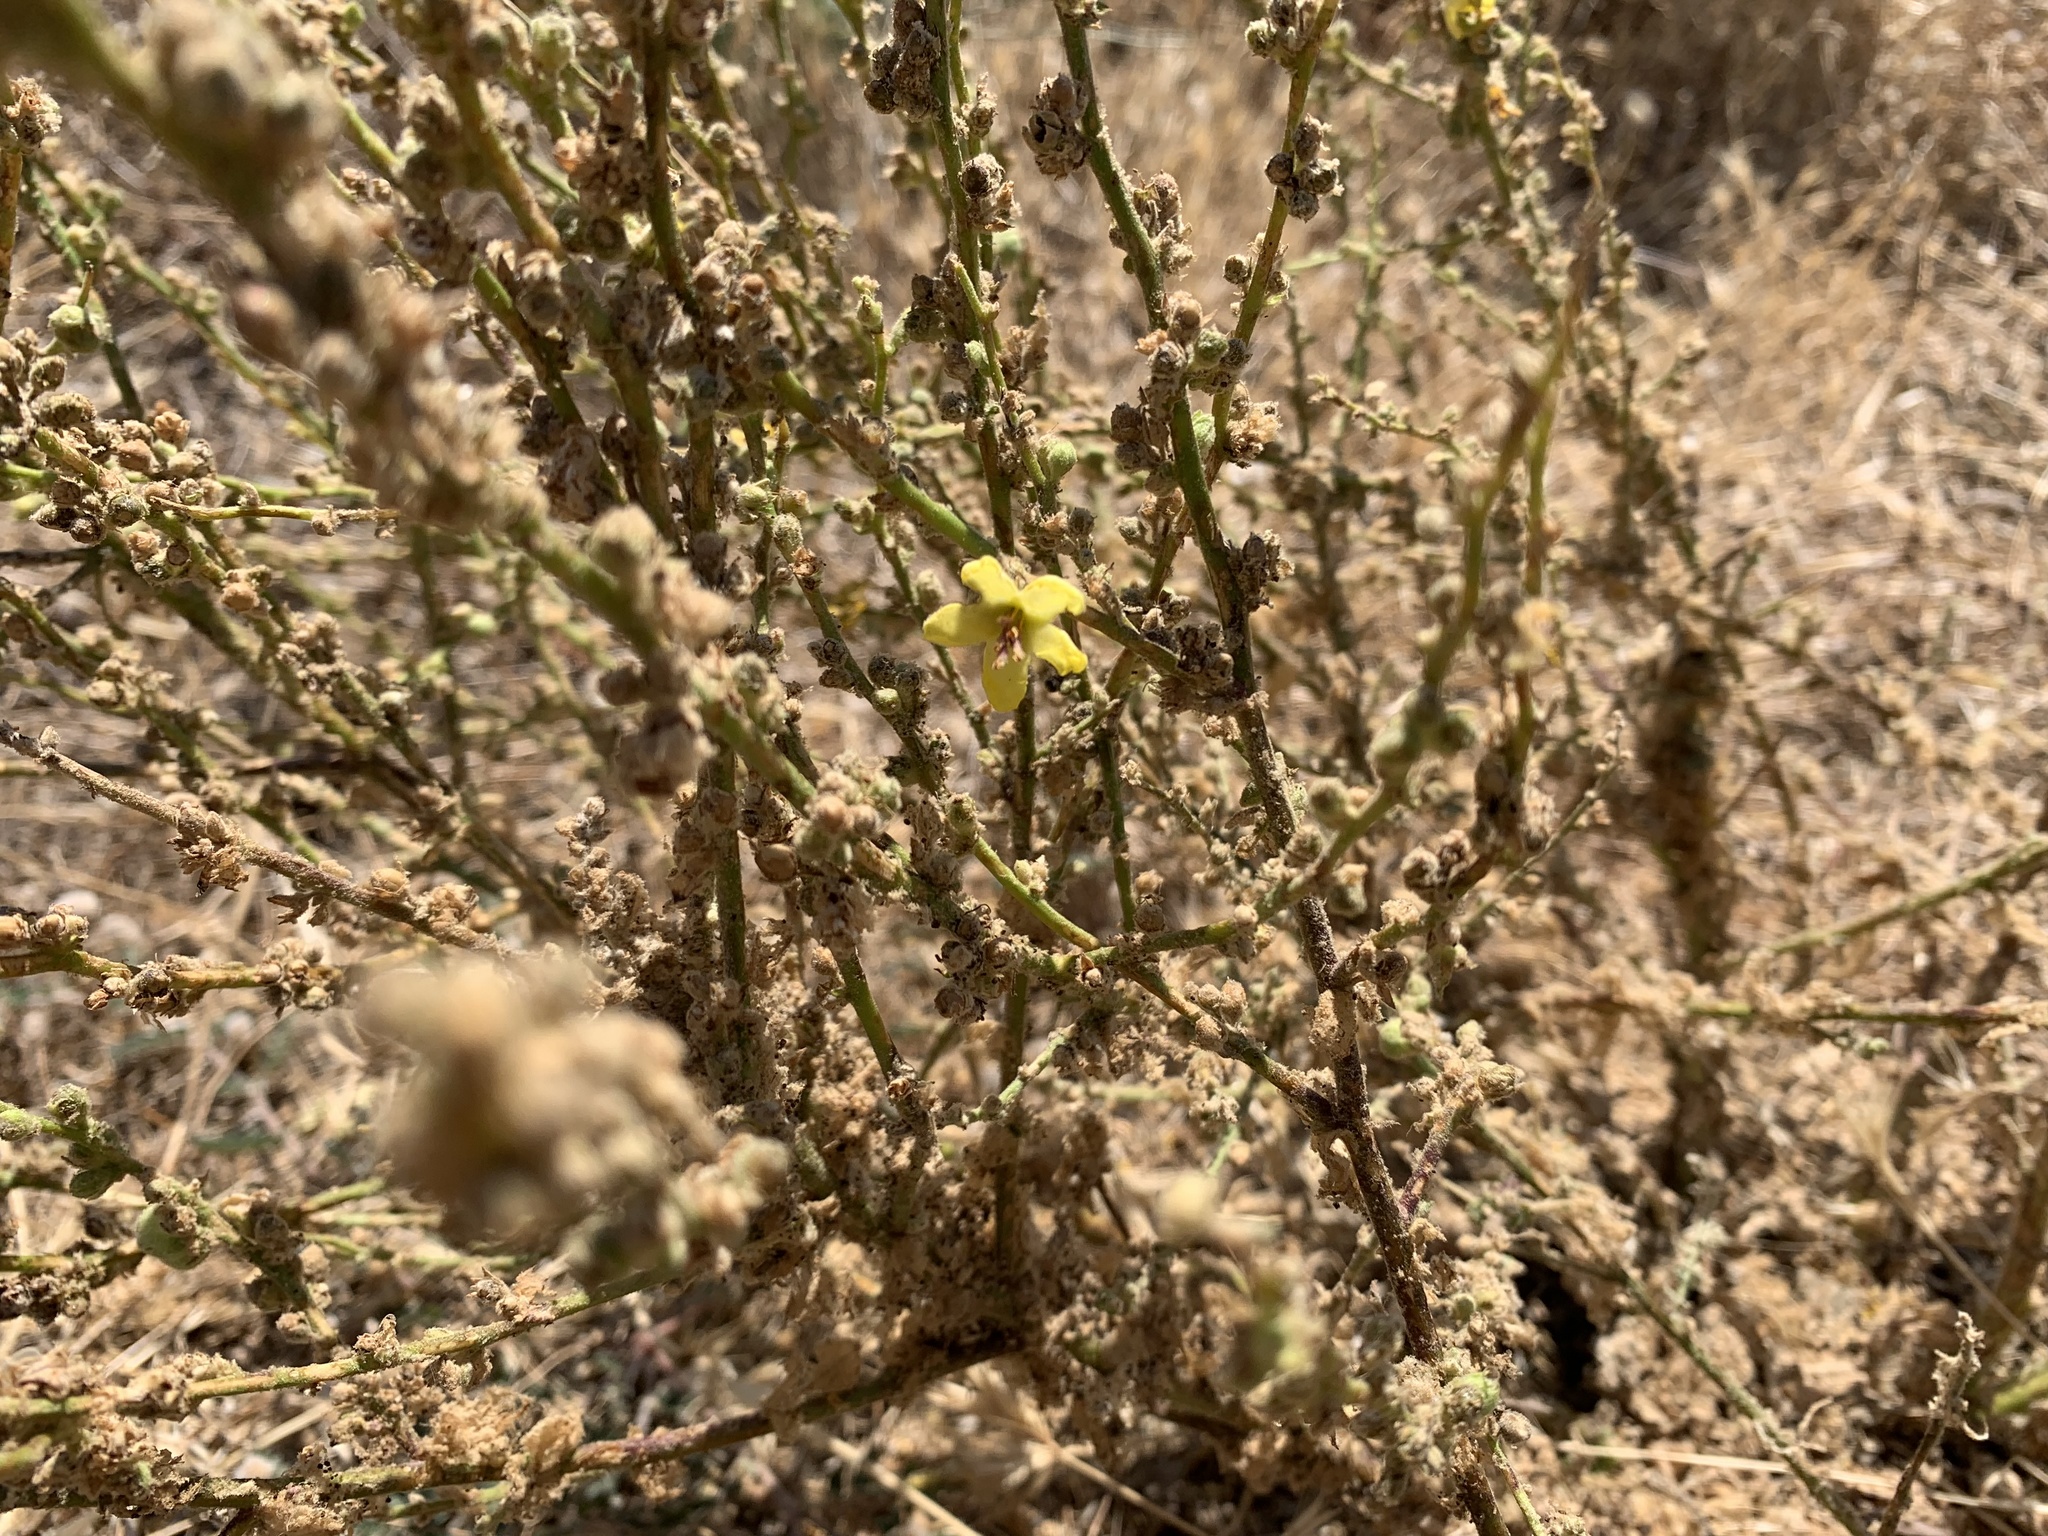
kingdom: Plantae
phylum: Tracheophyta
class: Magnoliopsida
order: Lamiales
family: Scrophulariaceae
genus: Verbascum
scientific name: Verbascum sinuatum
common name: Wavyleaf mullein
